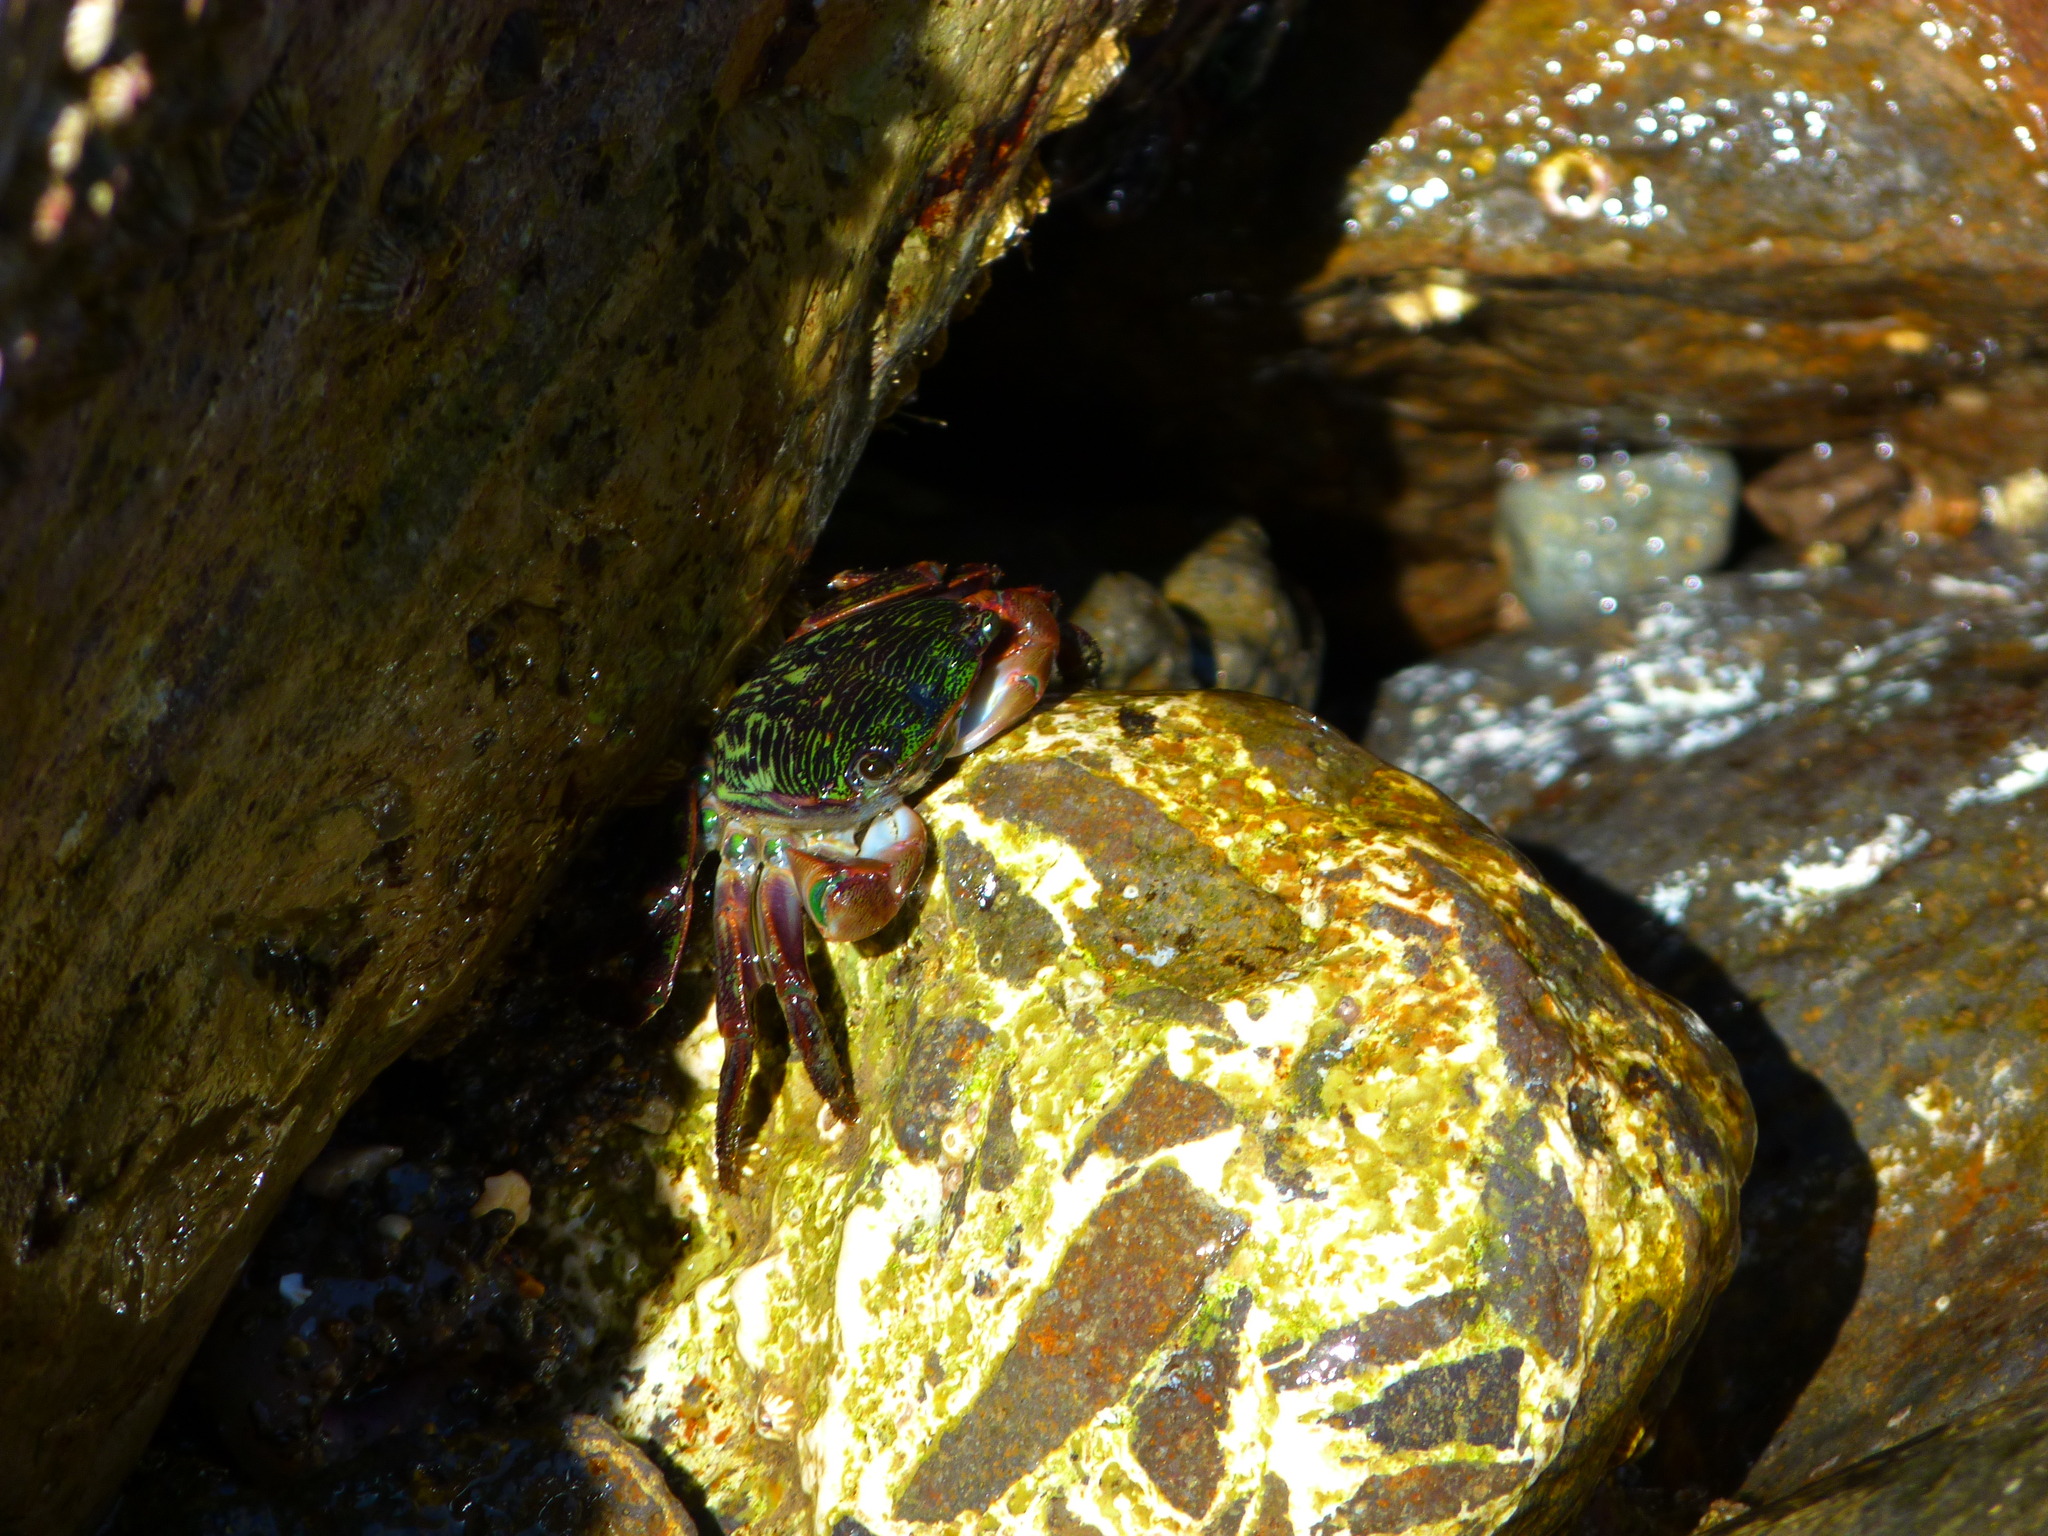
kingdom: Animalia
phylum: Arthropoda
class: Malacostraca
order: Decapoda
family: Grapsidae
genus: Pachygrapsus
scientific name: Pachygrapsus crassipes
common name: Striped shore crab
